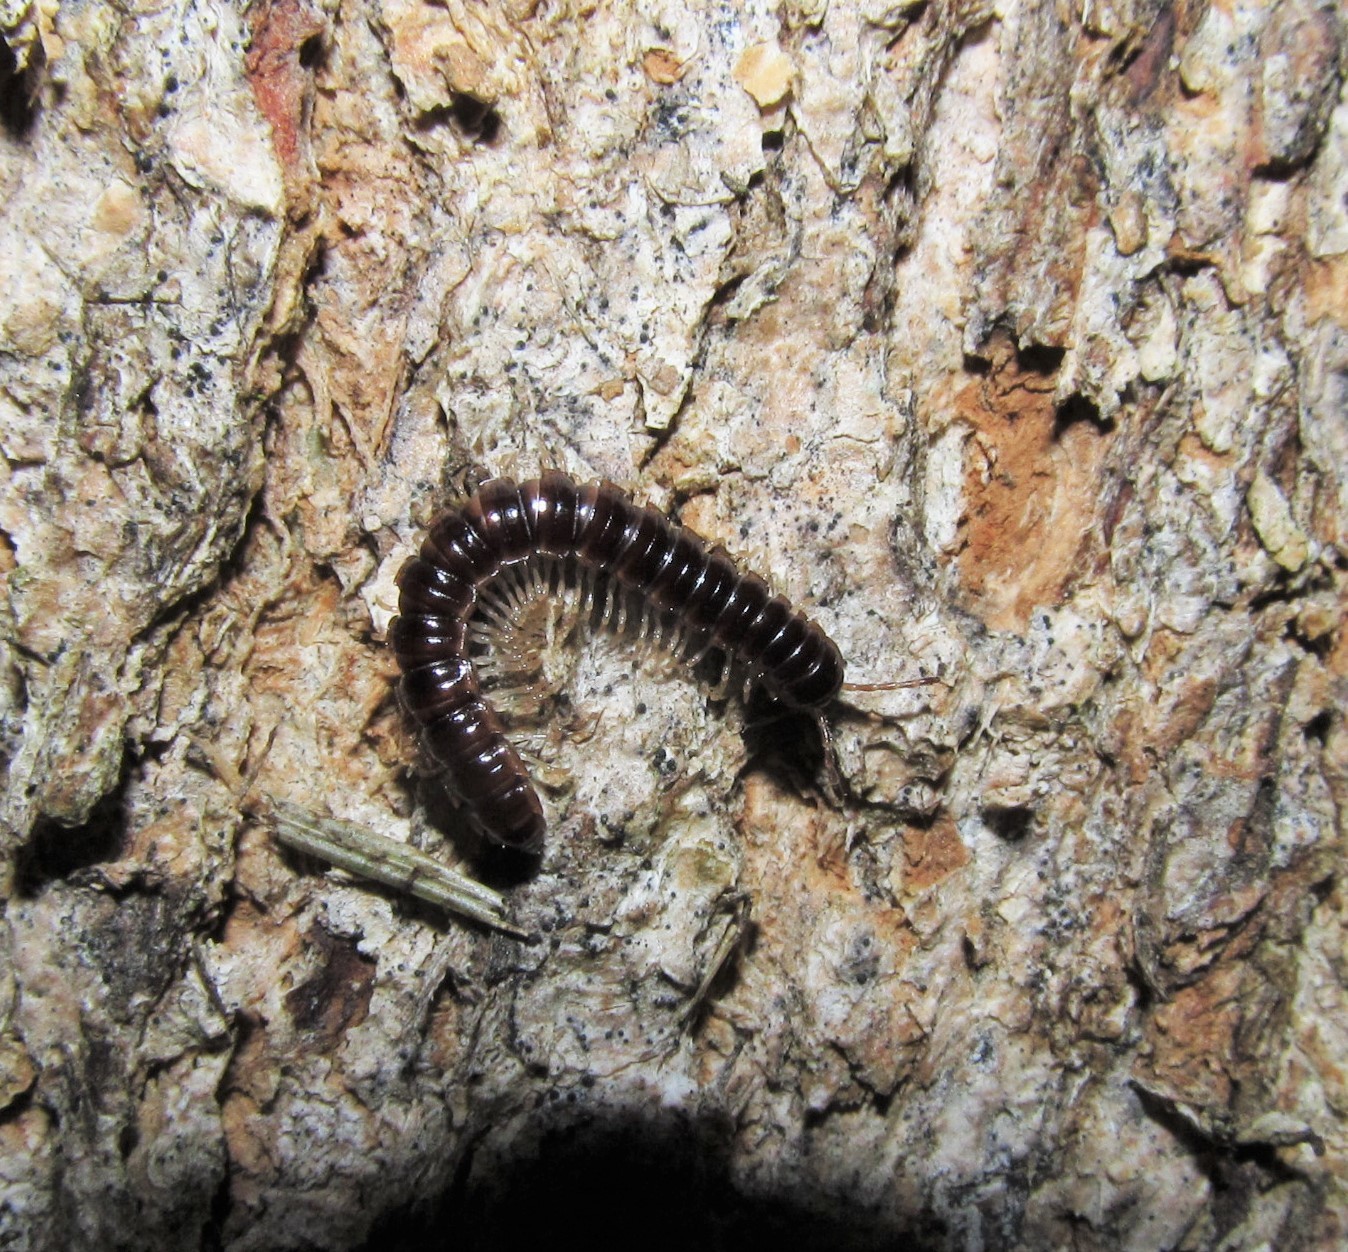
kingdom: Animalia
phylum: Arthropoda
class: Diplopoda
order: Polydesmida
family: Paradoxosomatidae
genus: Oxidus
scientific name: Oxidus gracilis
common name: Greenhouse millipede
